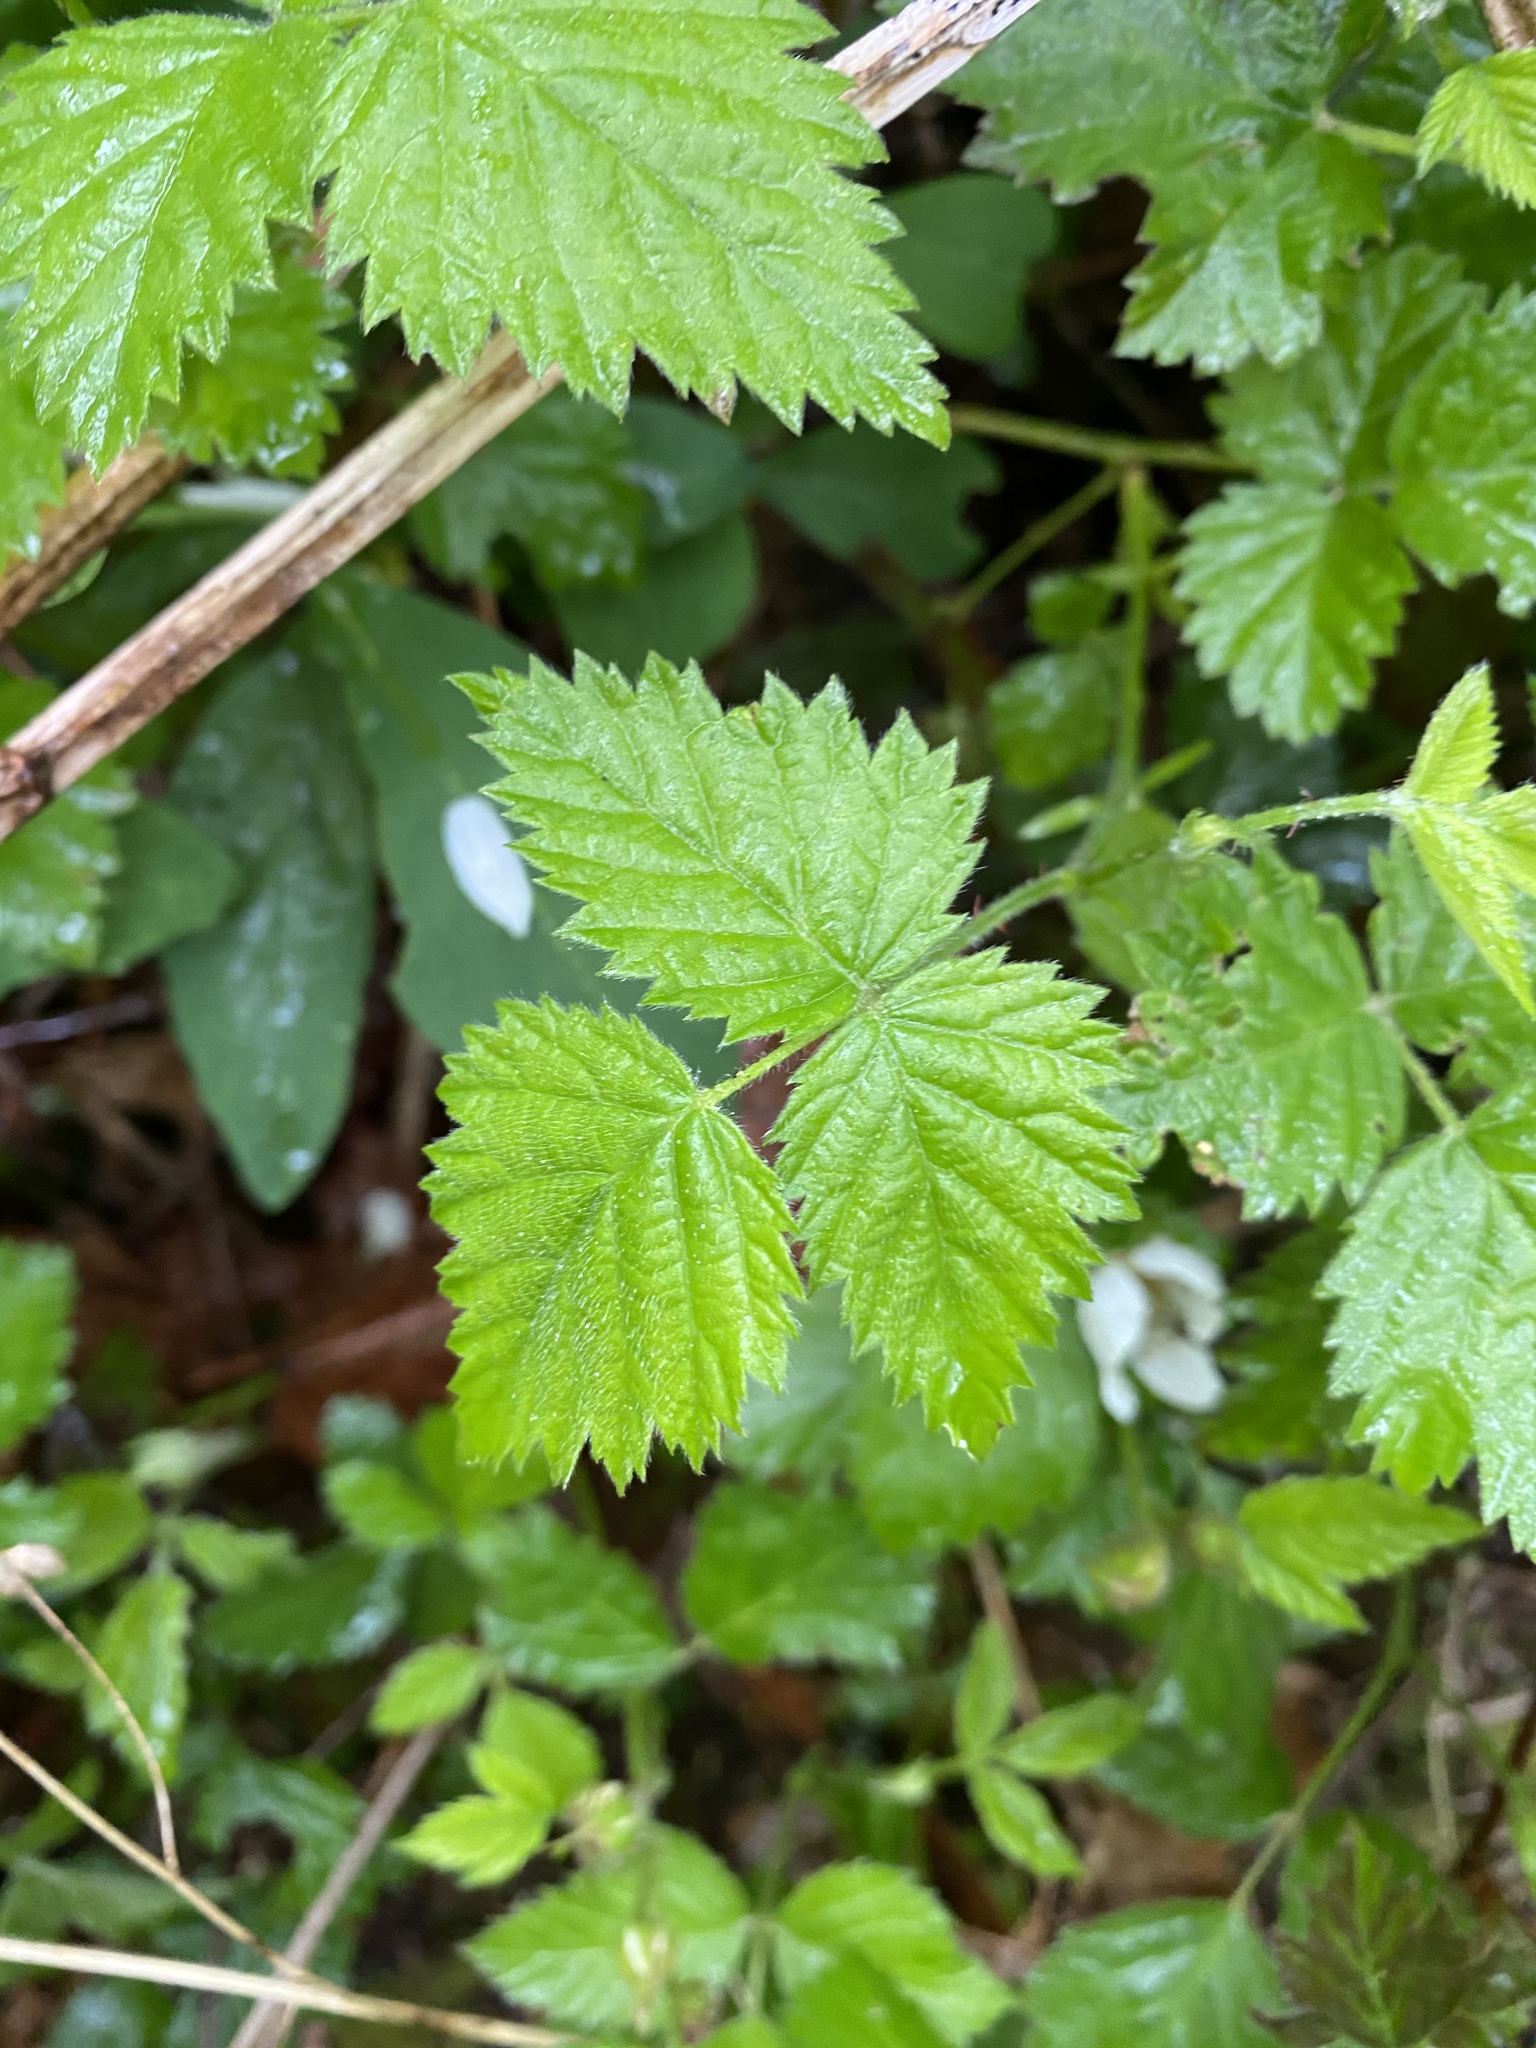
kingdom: Plantae
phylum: Tracheophyta
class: Magnoliopsida
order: Rosales
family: Rosaceae
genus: Rubus
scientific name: Rubus ursinus
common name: Pacific blackberry
